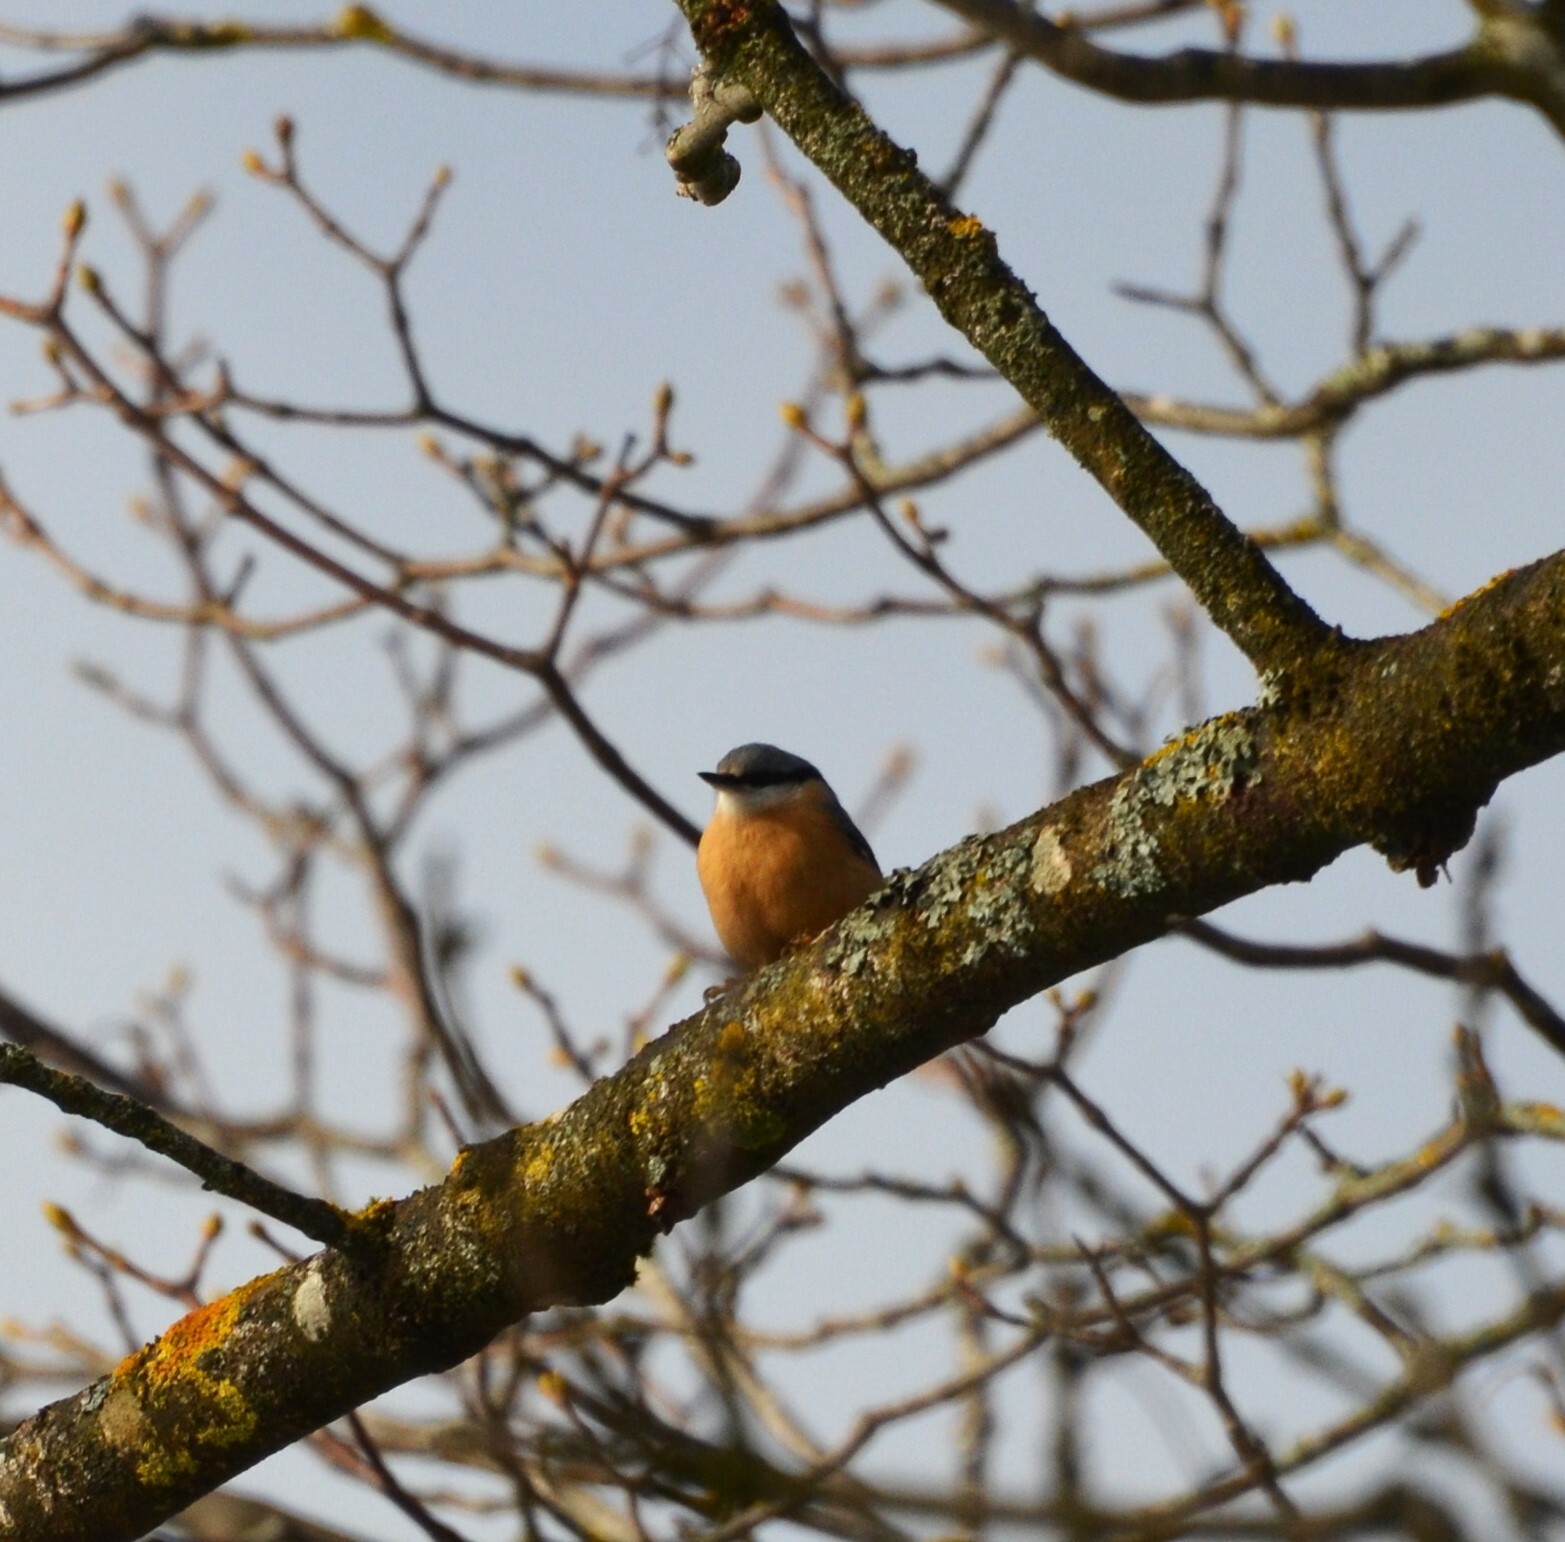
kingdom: Animalia
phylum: Chordata
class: Aves
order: Passeriformes
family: Sittidae
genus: Sitta
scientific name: Sitta europaea
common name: Eurasian nuthatch
